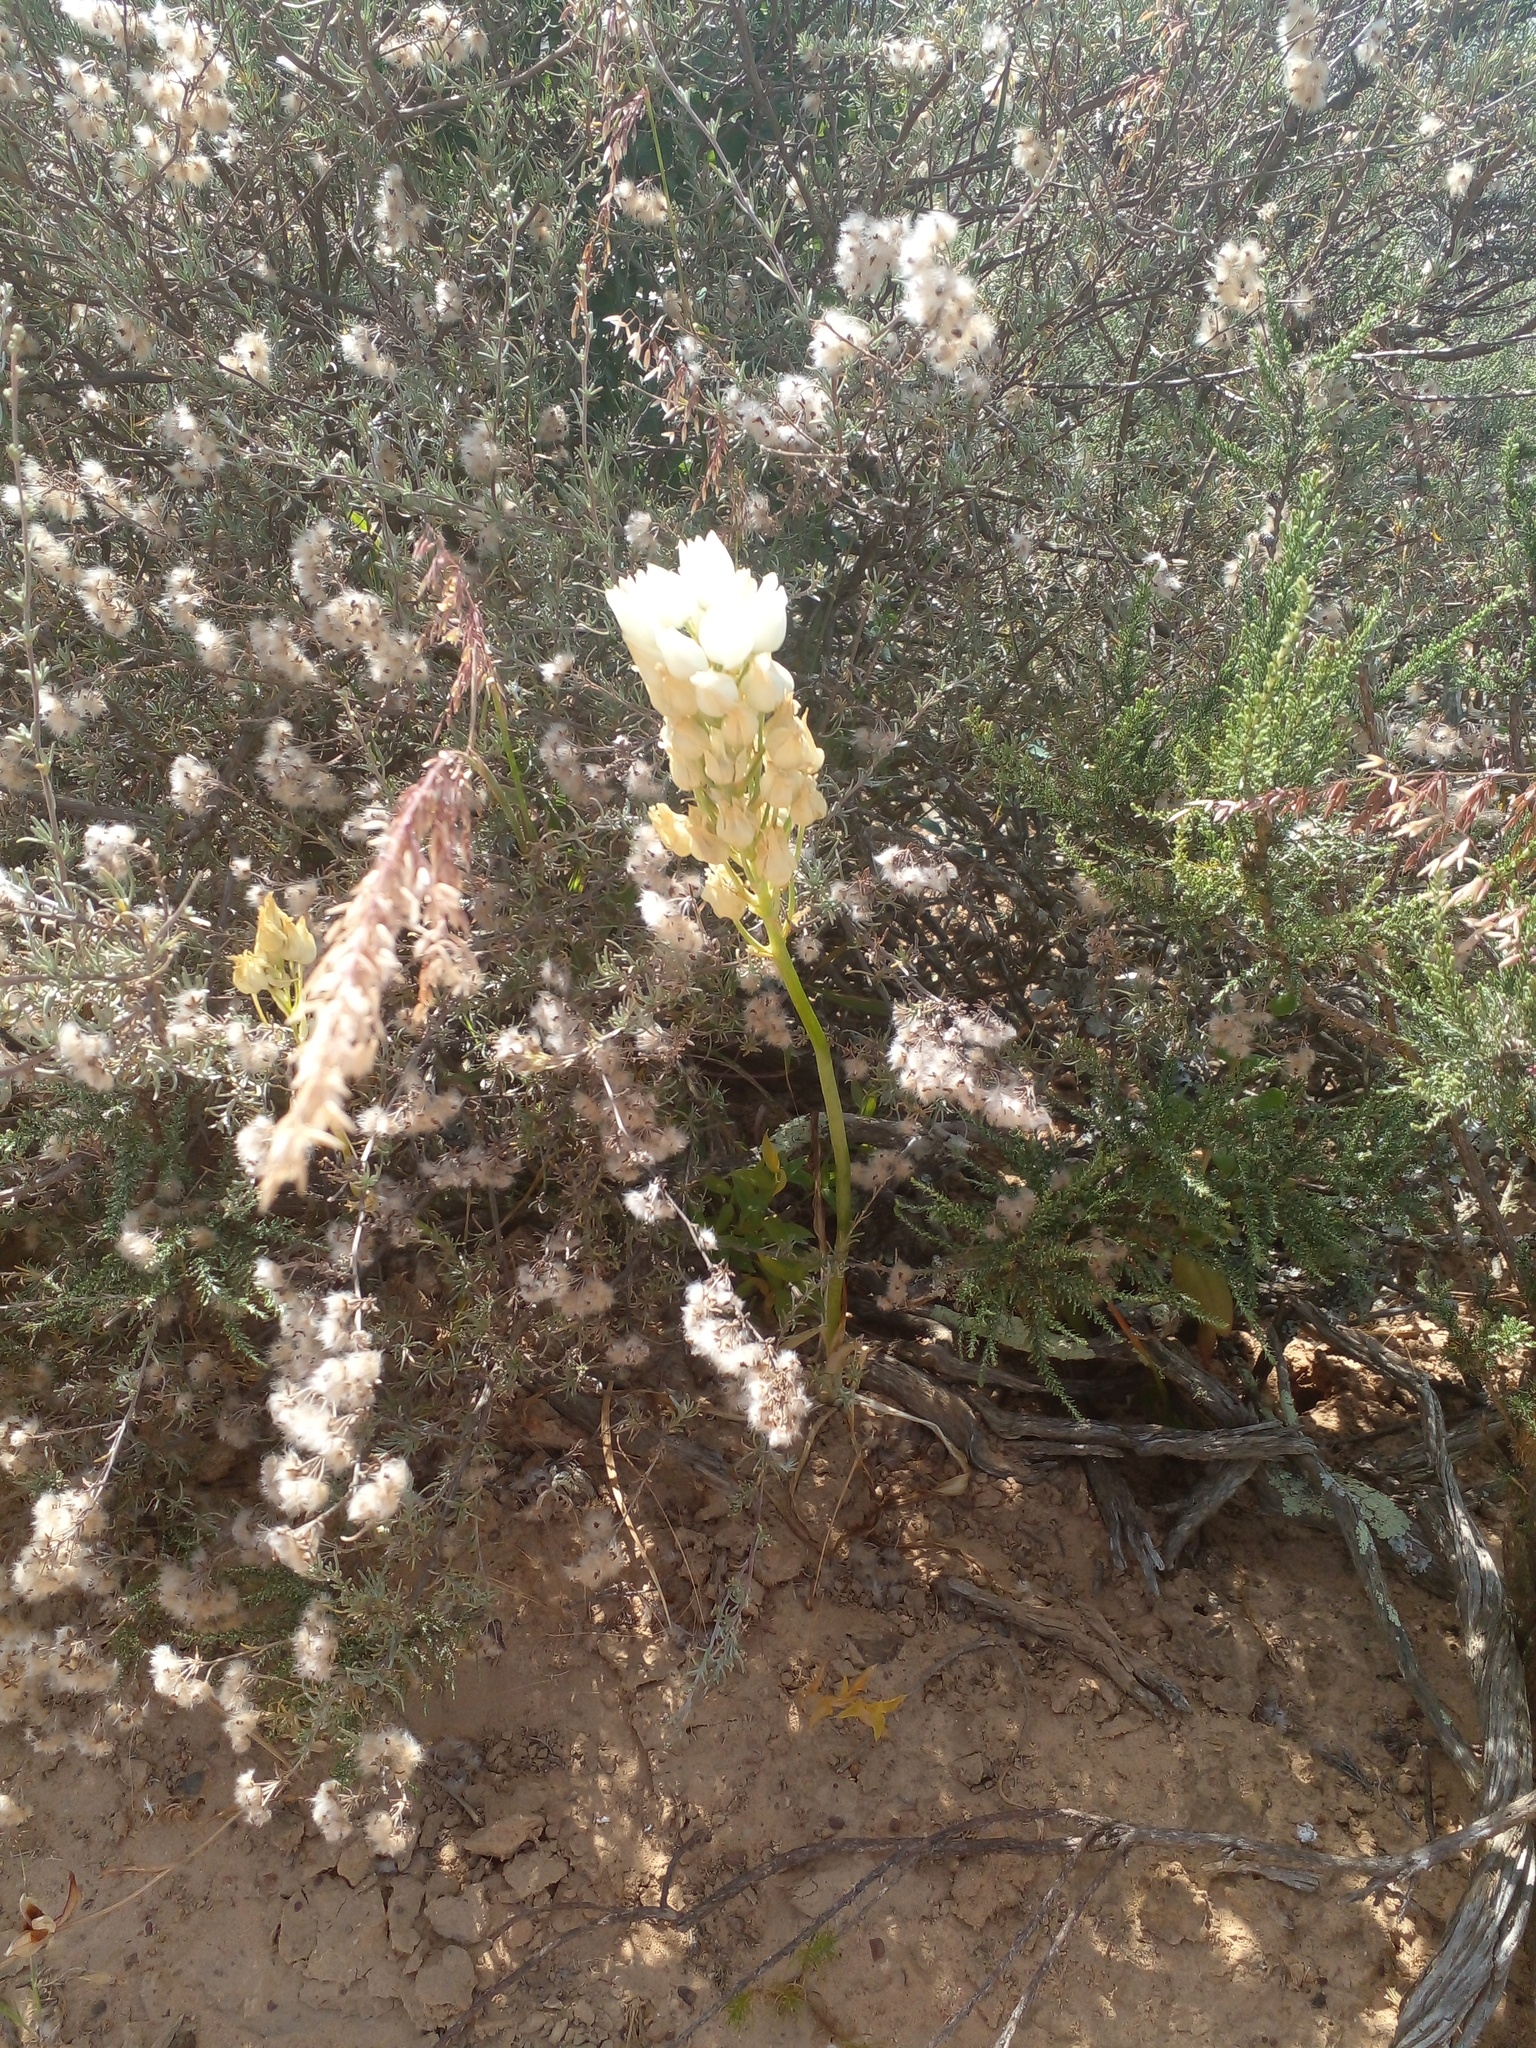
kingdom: Plantae
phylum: Tracheophyta
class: Liliopsida
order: Asparagales
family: Asparagaceae
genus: Ornithogalum
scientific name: Ornithogalum thyrsoides
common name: Chincherinchee
